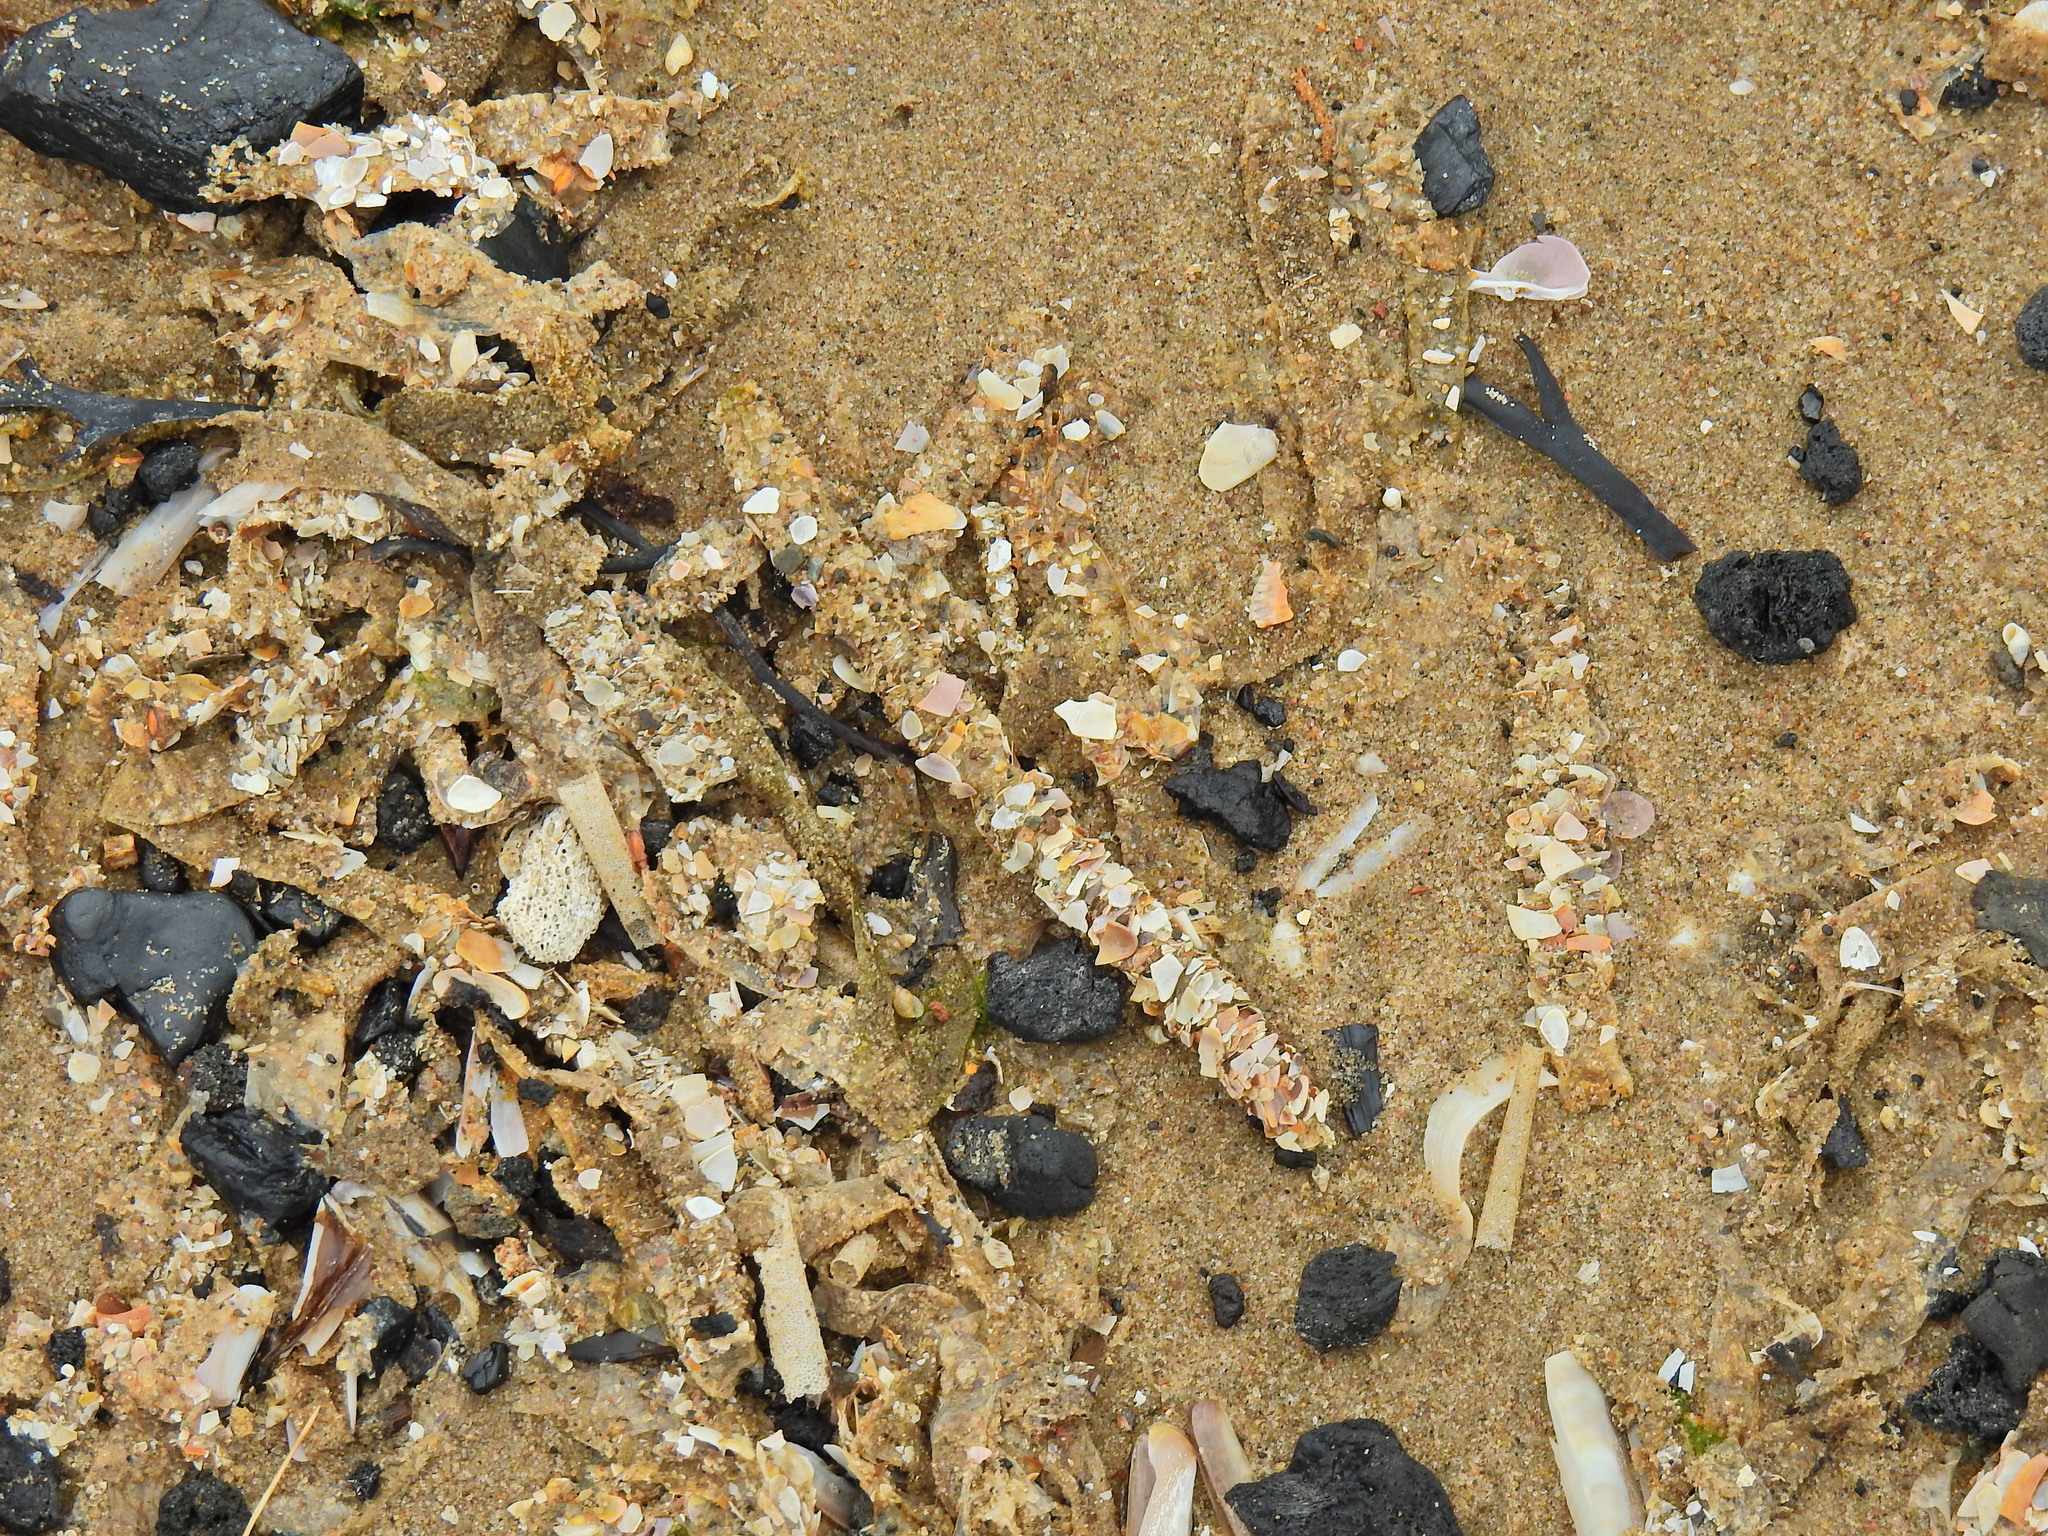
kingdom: Animalia
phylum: Annelida
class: Polychaeta
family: Terebellidae
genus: Lanice
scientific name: Lanice conchilega
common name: Sand mason
